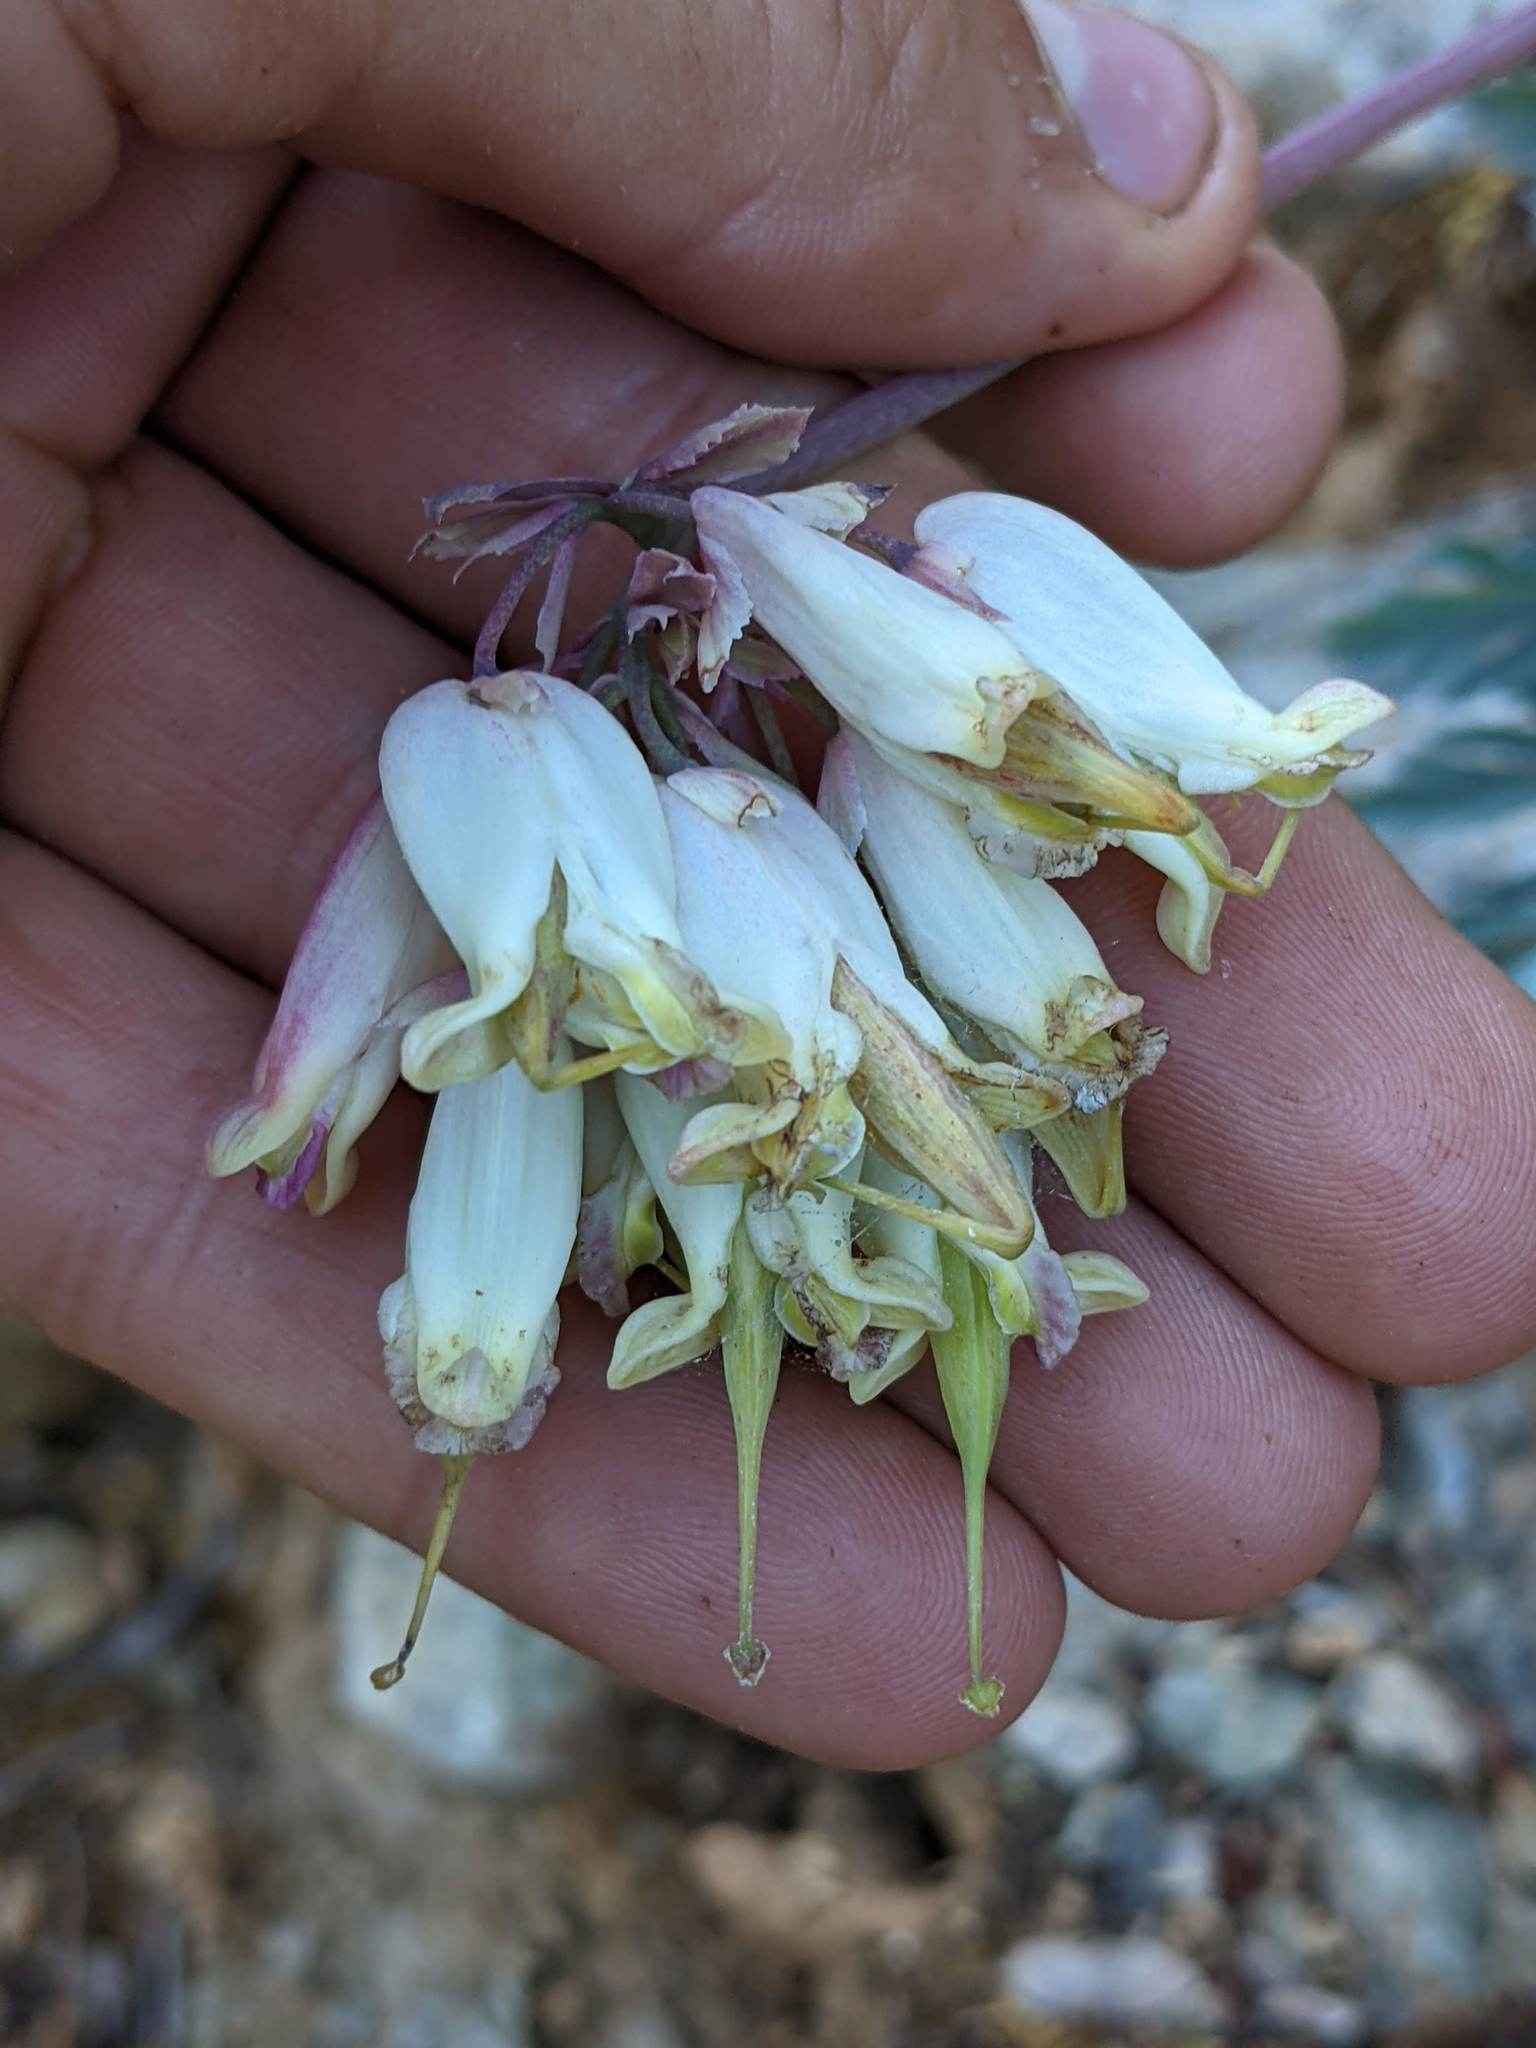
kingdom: Plantae
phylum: Tracheophyta
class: Magnoliopsida
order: Ranunculales
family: Papaveraceae
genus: Dicentra
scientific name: Dicentra formosa
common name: Bleeding-heart
